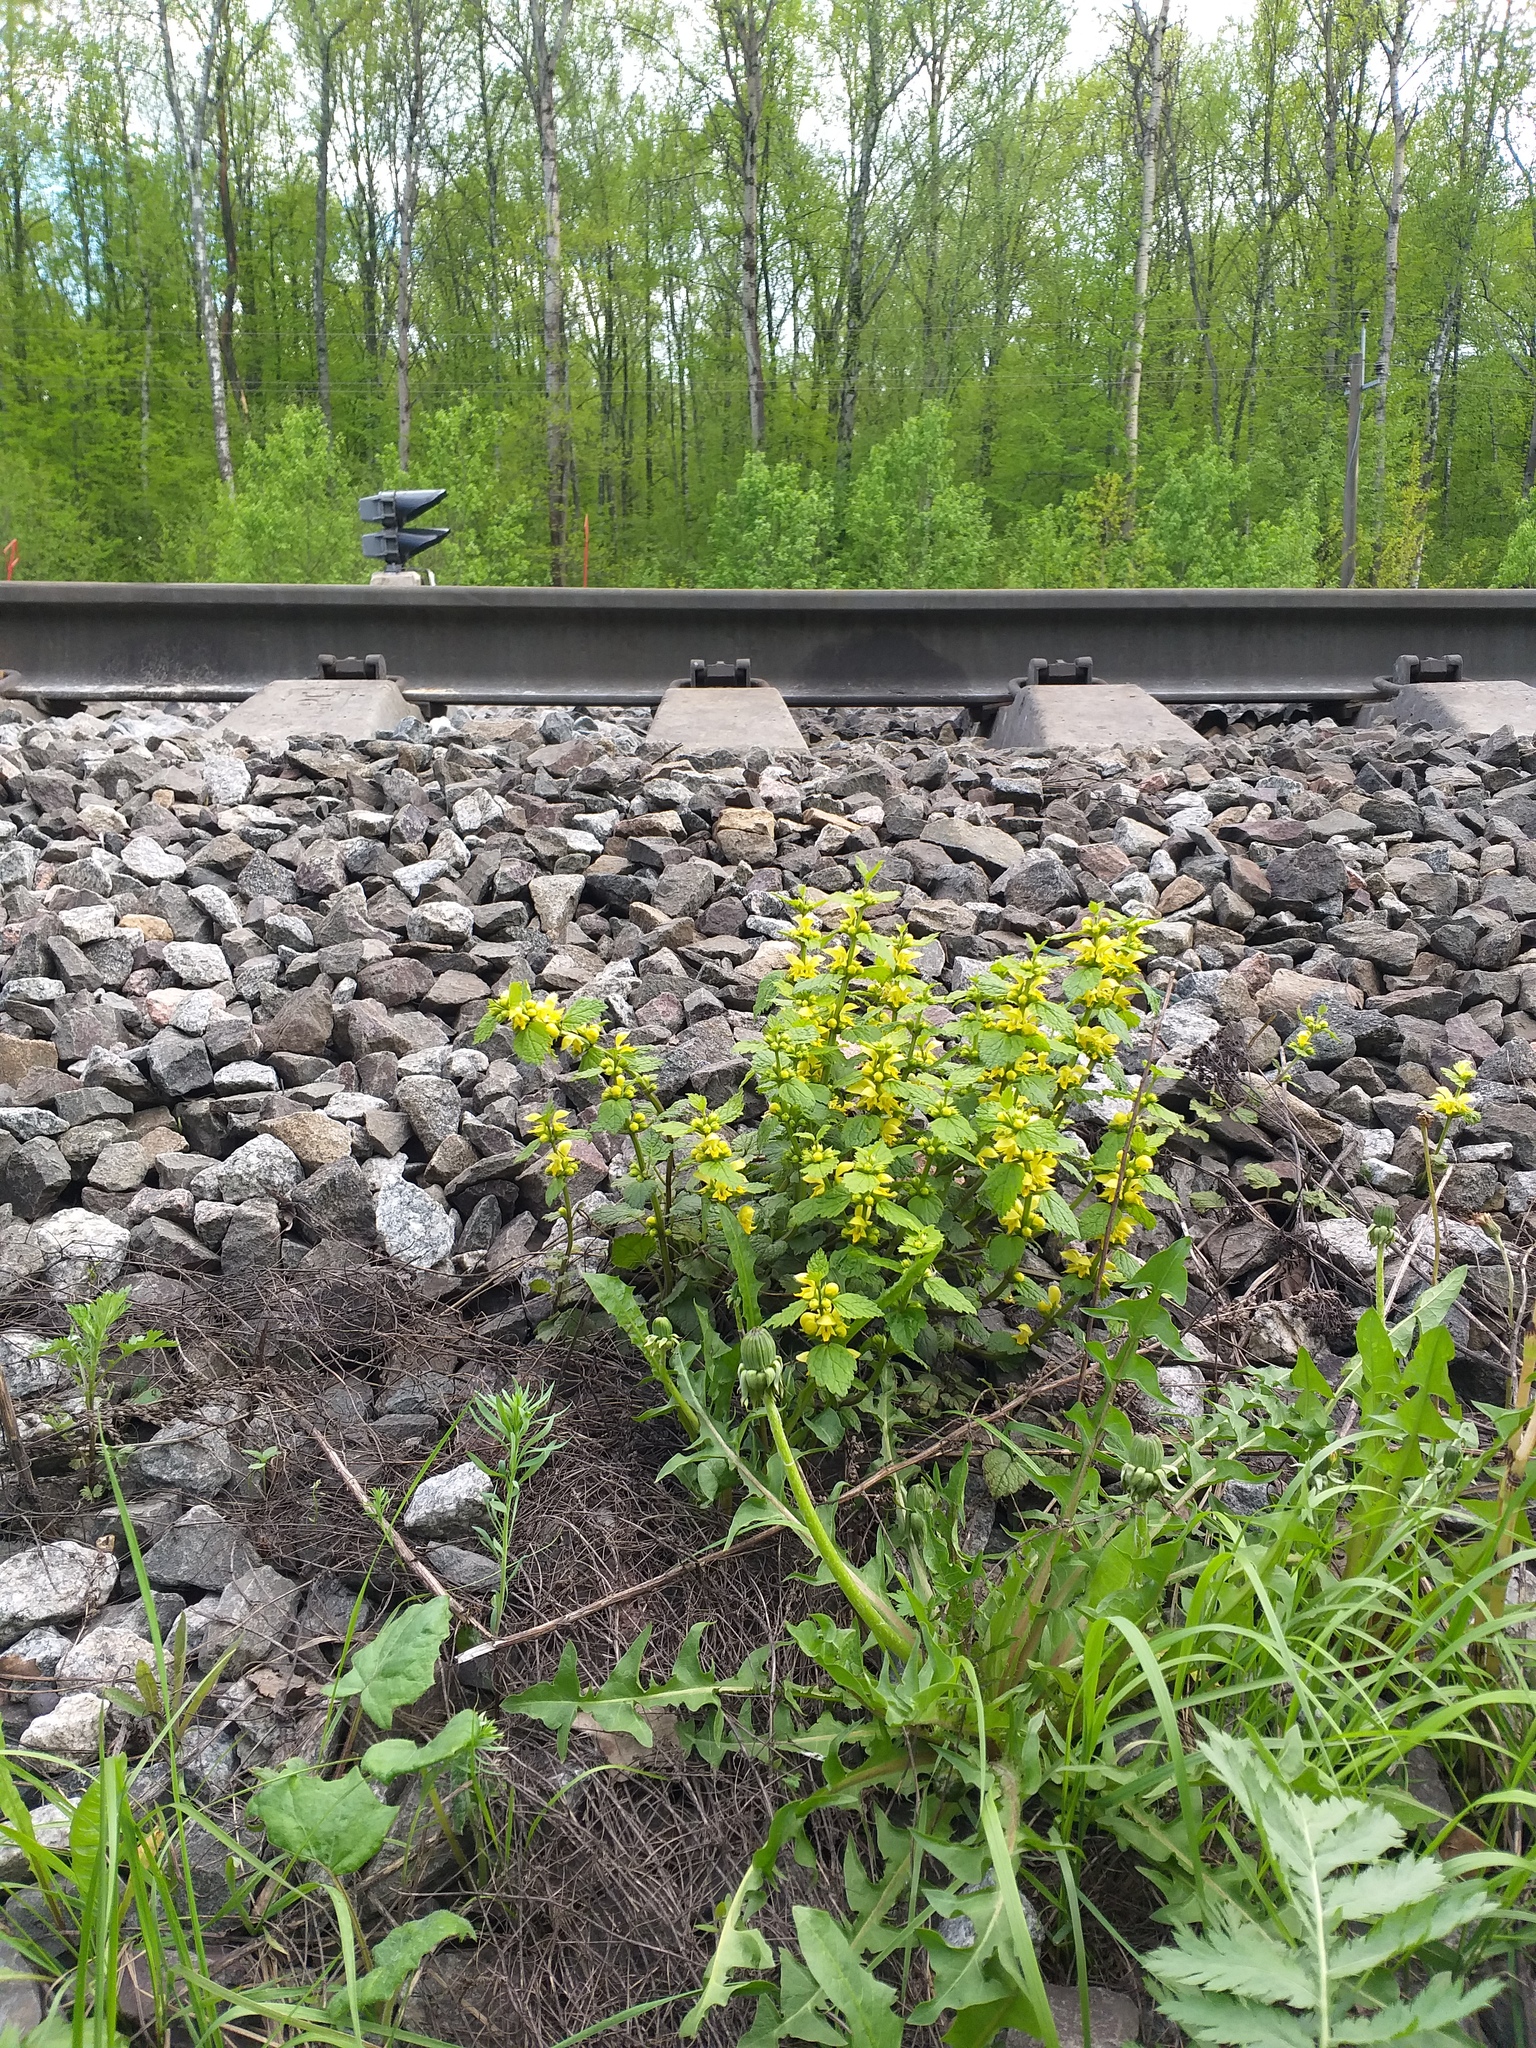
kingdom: Plantae
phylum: Tracheophyta
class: Magnoliopsida
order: Lamiales
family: Lamiaceae
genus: Lamium
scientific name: Lamium galeobdolon
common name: Yellow archangel
